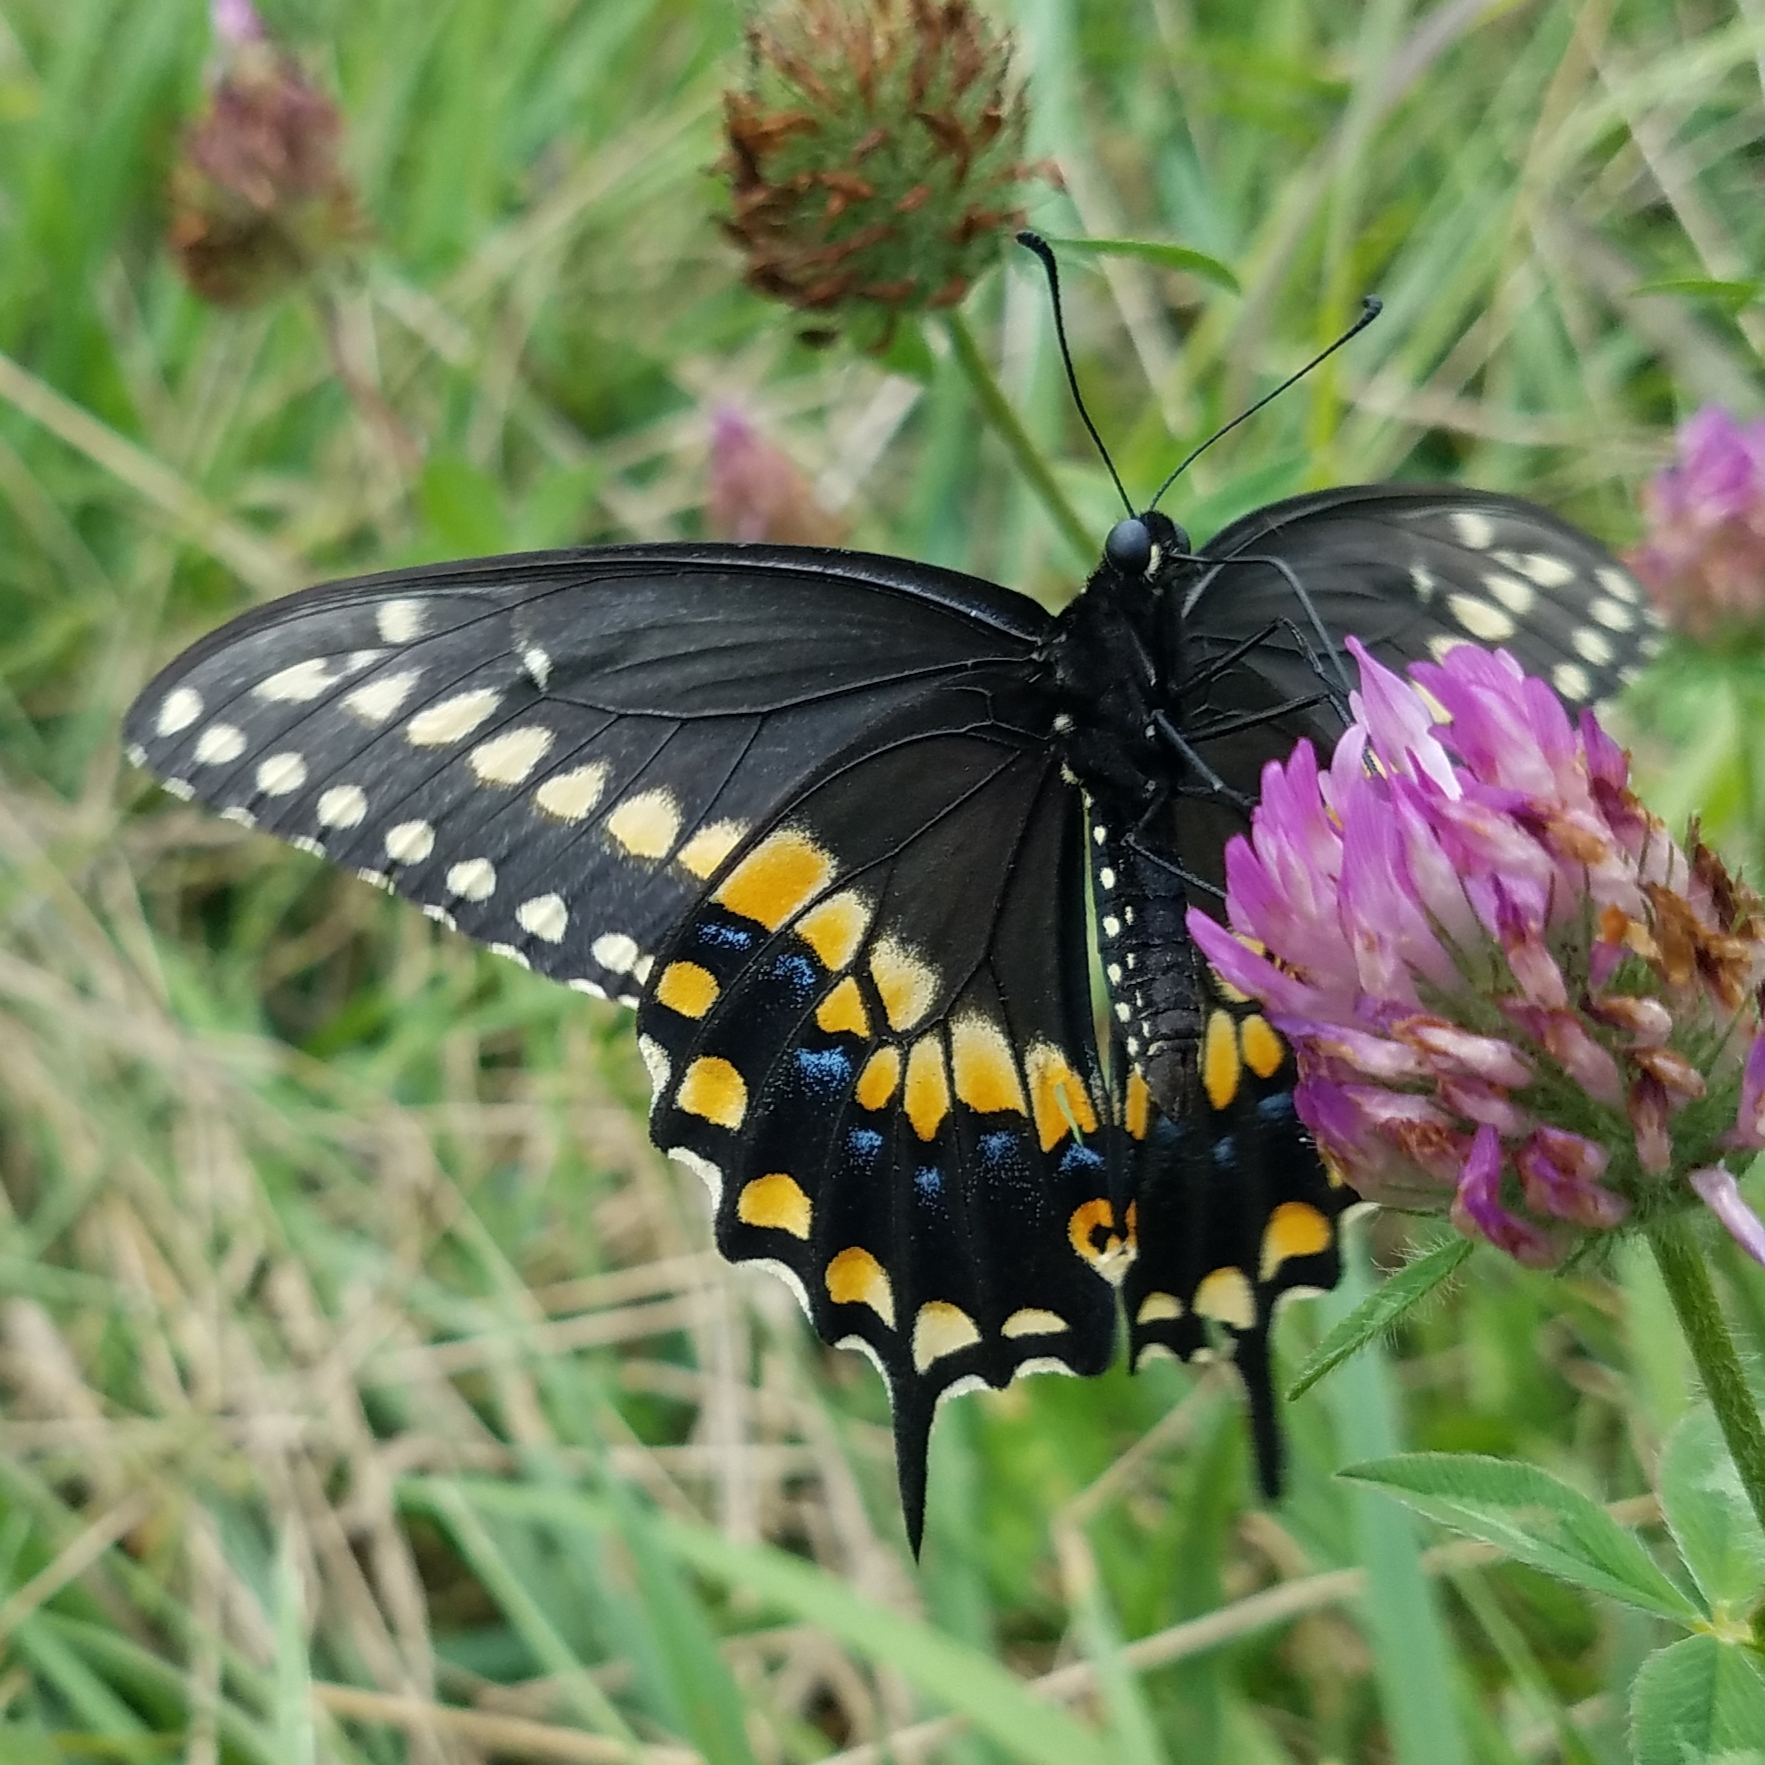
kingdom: Animalia
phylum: Arthropoda
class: Insecta
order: Lepidoptera
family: Papilionidae
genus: Papilio
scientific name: Papilio polyxenes
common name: Black swallowtail
